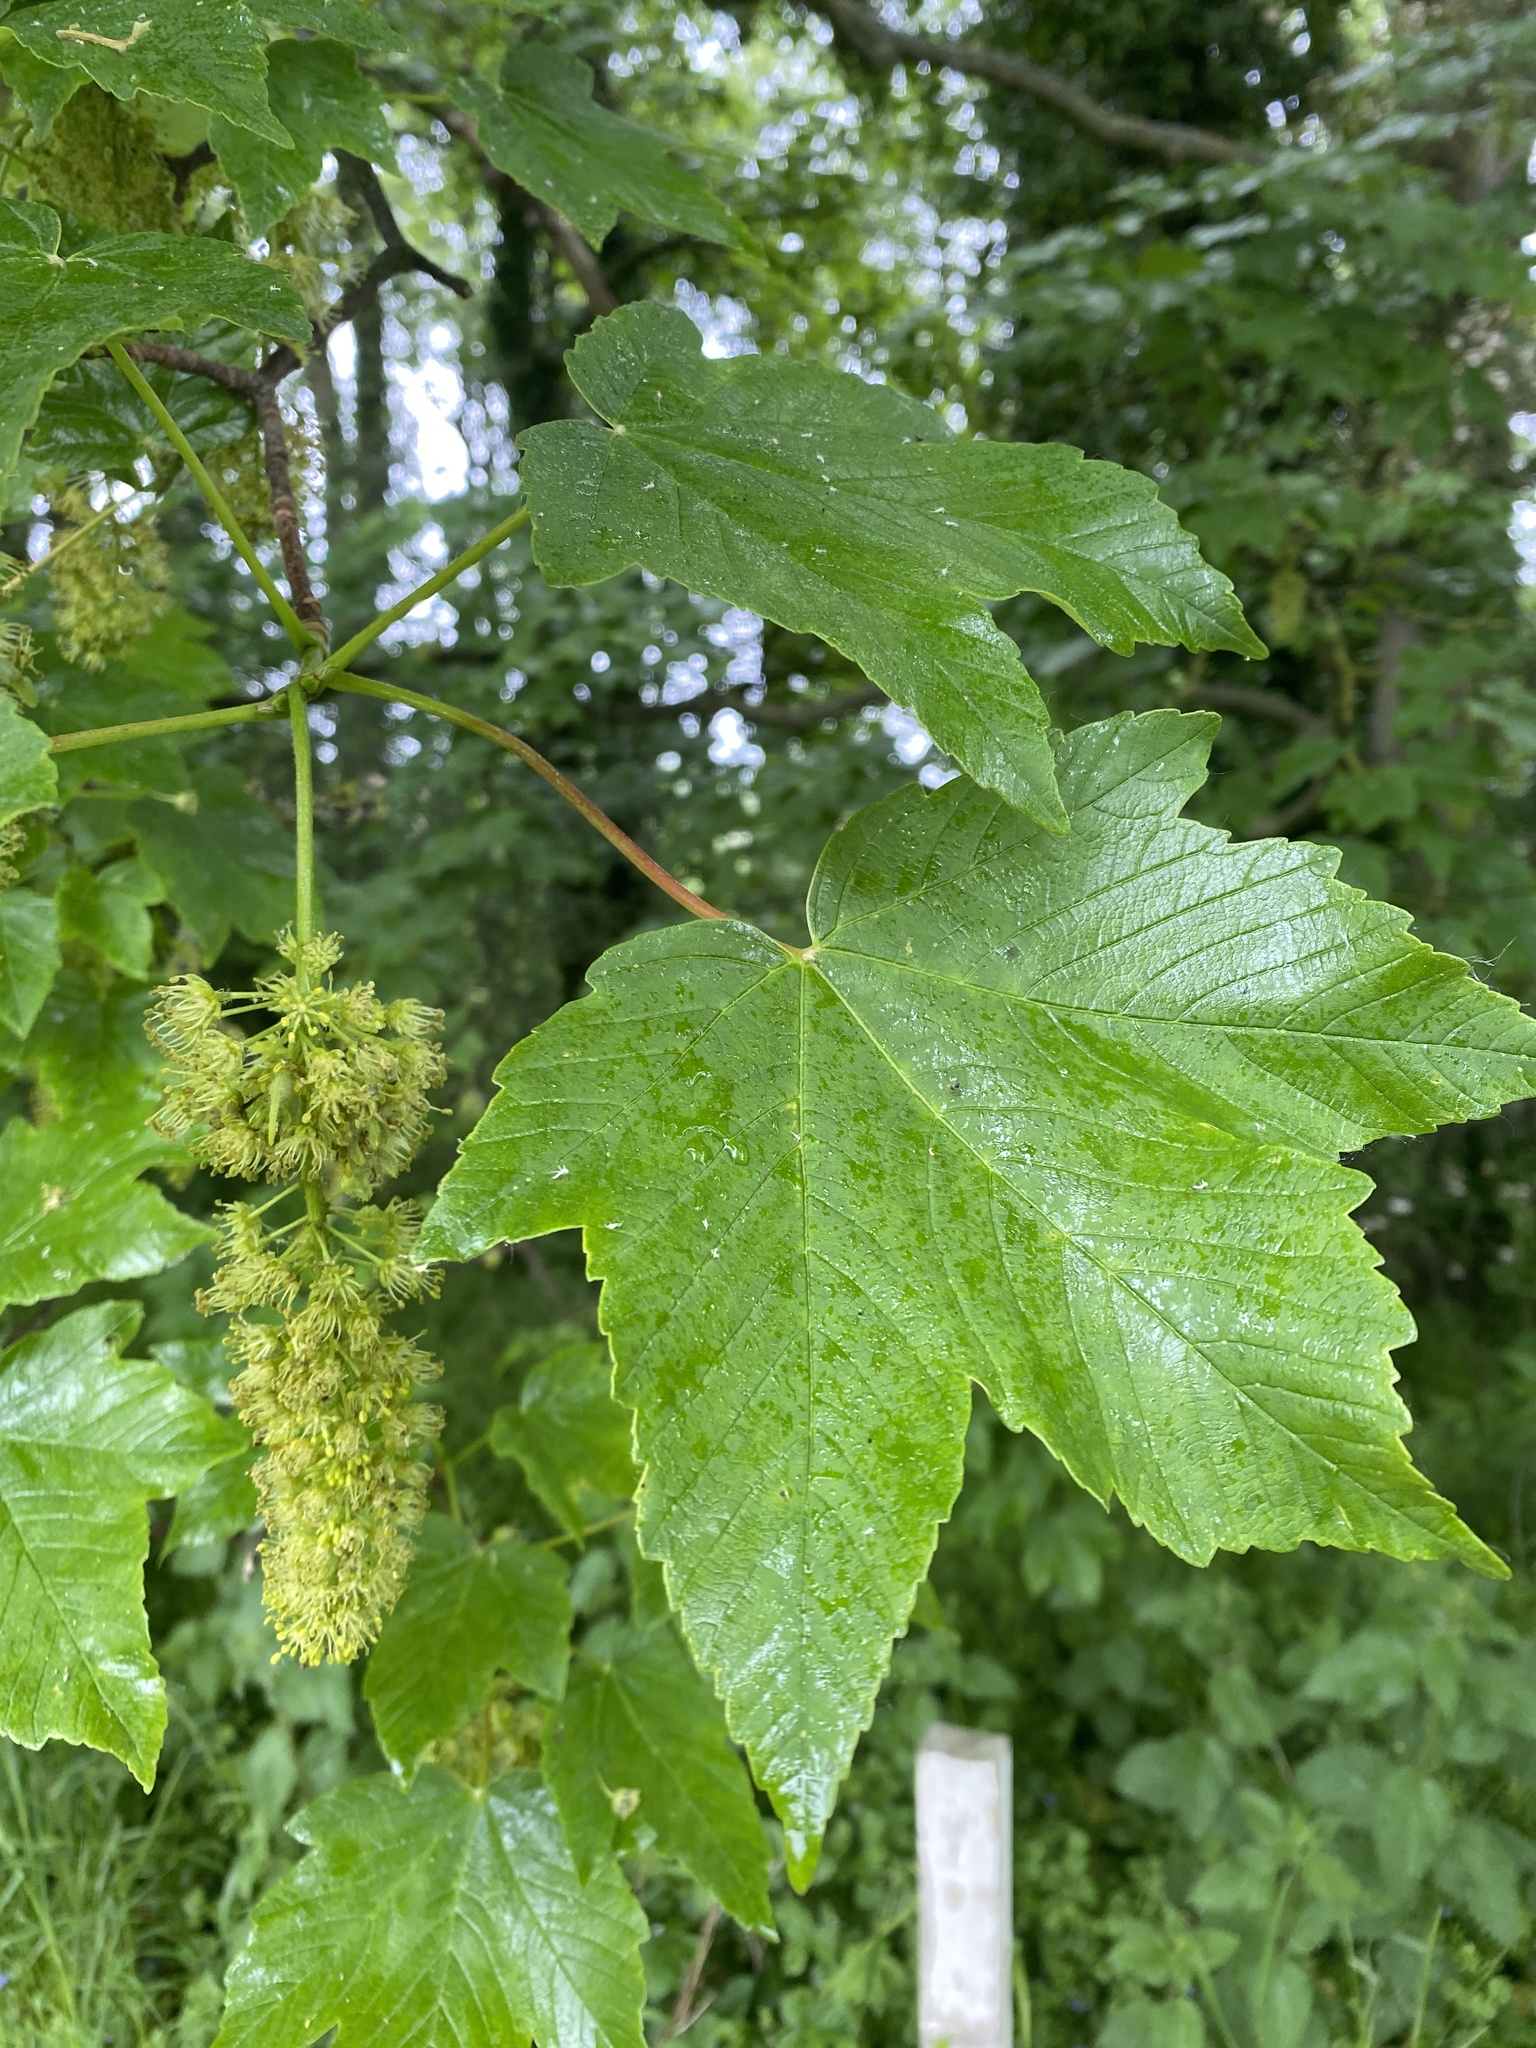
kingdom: Plantae
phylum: Tracheophyta
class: Magnoliopsida
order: Sapindales
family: Sapindaceae
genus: Acer
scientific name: Acer pseudoplatanus
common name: Sycamore
